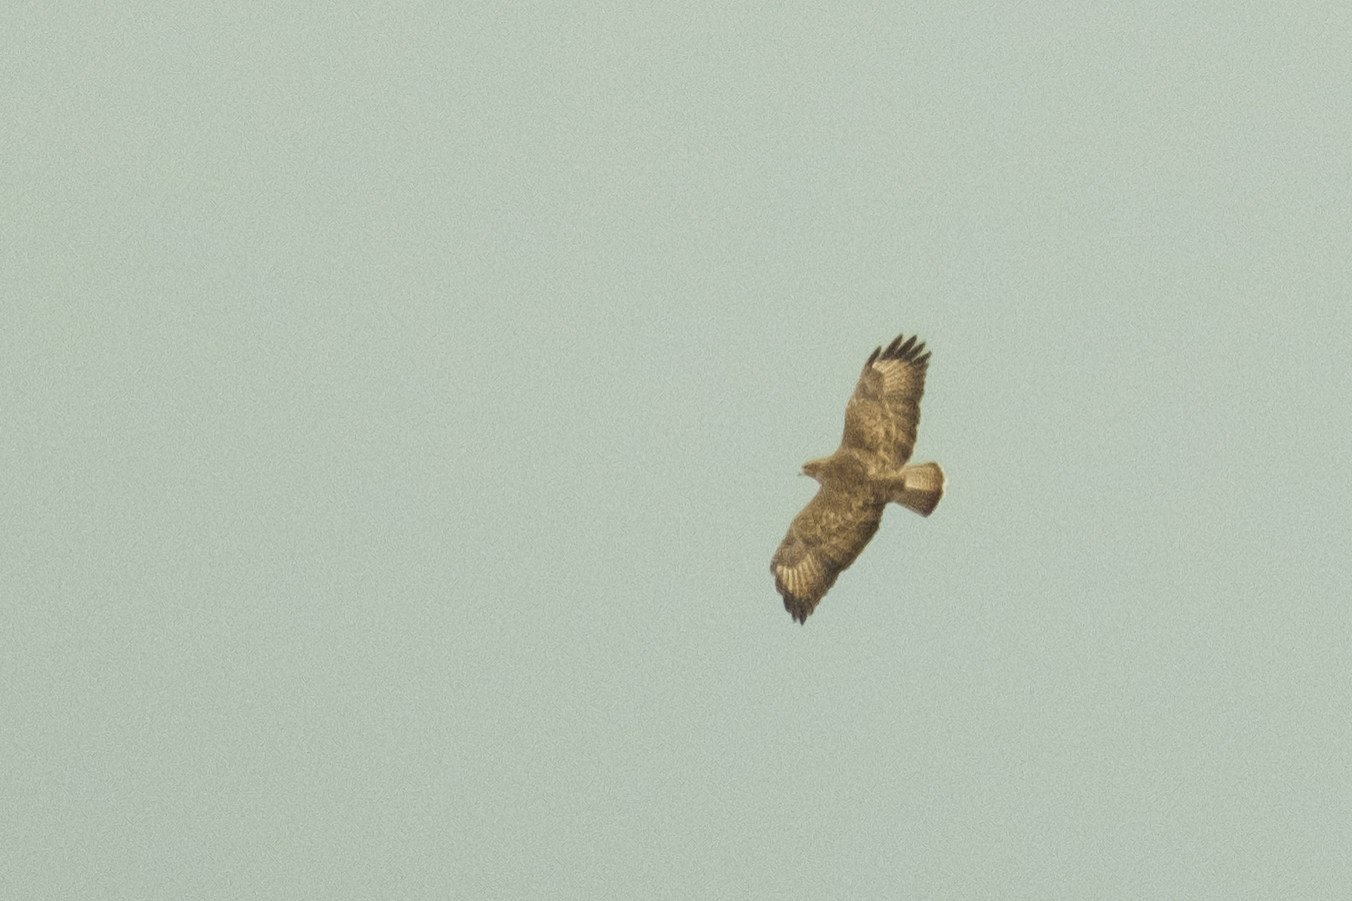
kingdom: Animalia
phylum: Chordata
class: Aves
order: Accipitriformes
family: Accipitridae
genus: Buteo
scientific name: Buteo buteo
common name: Common buzzard
